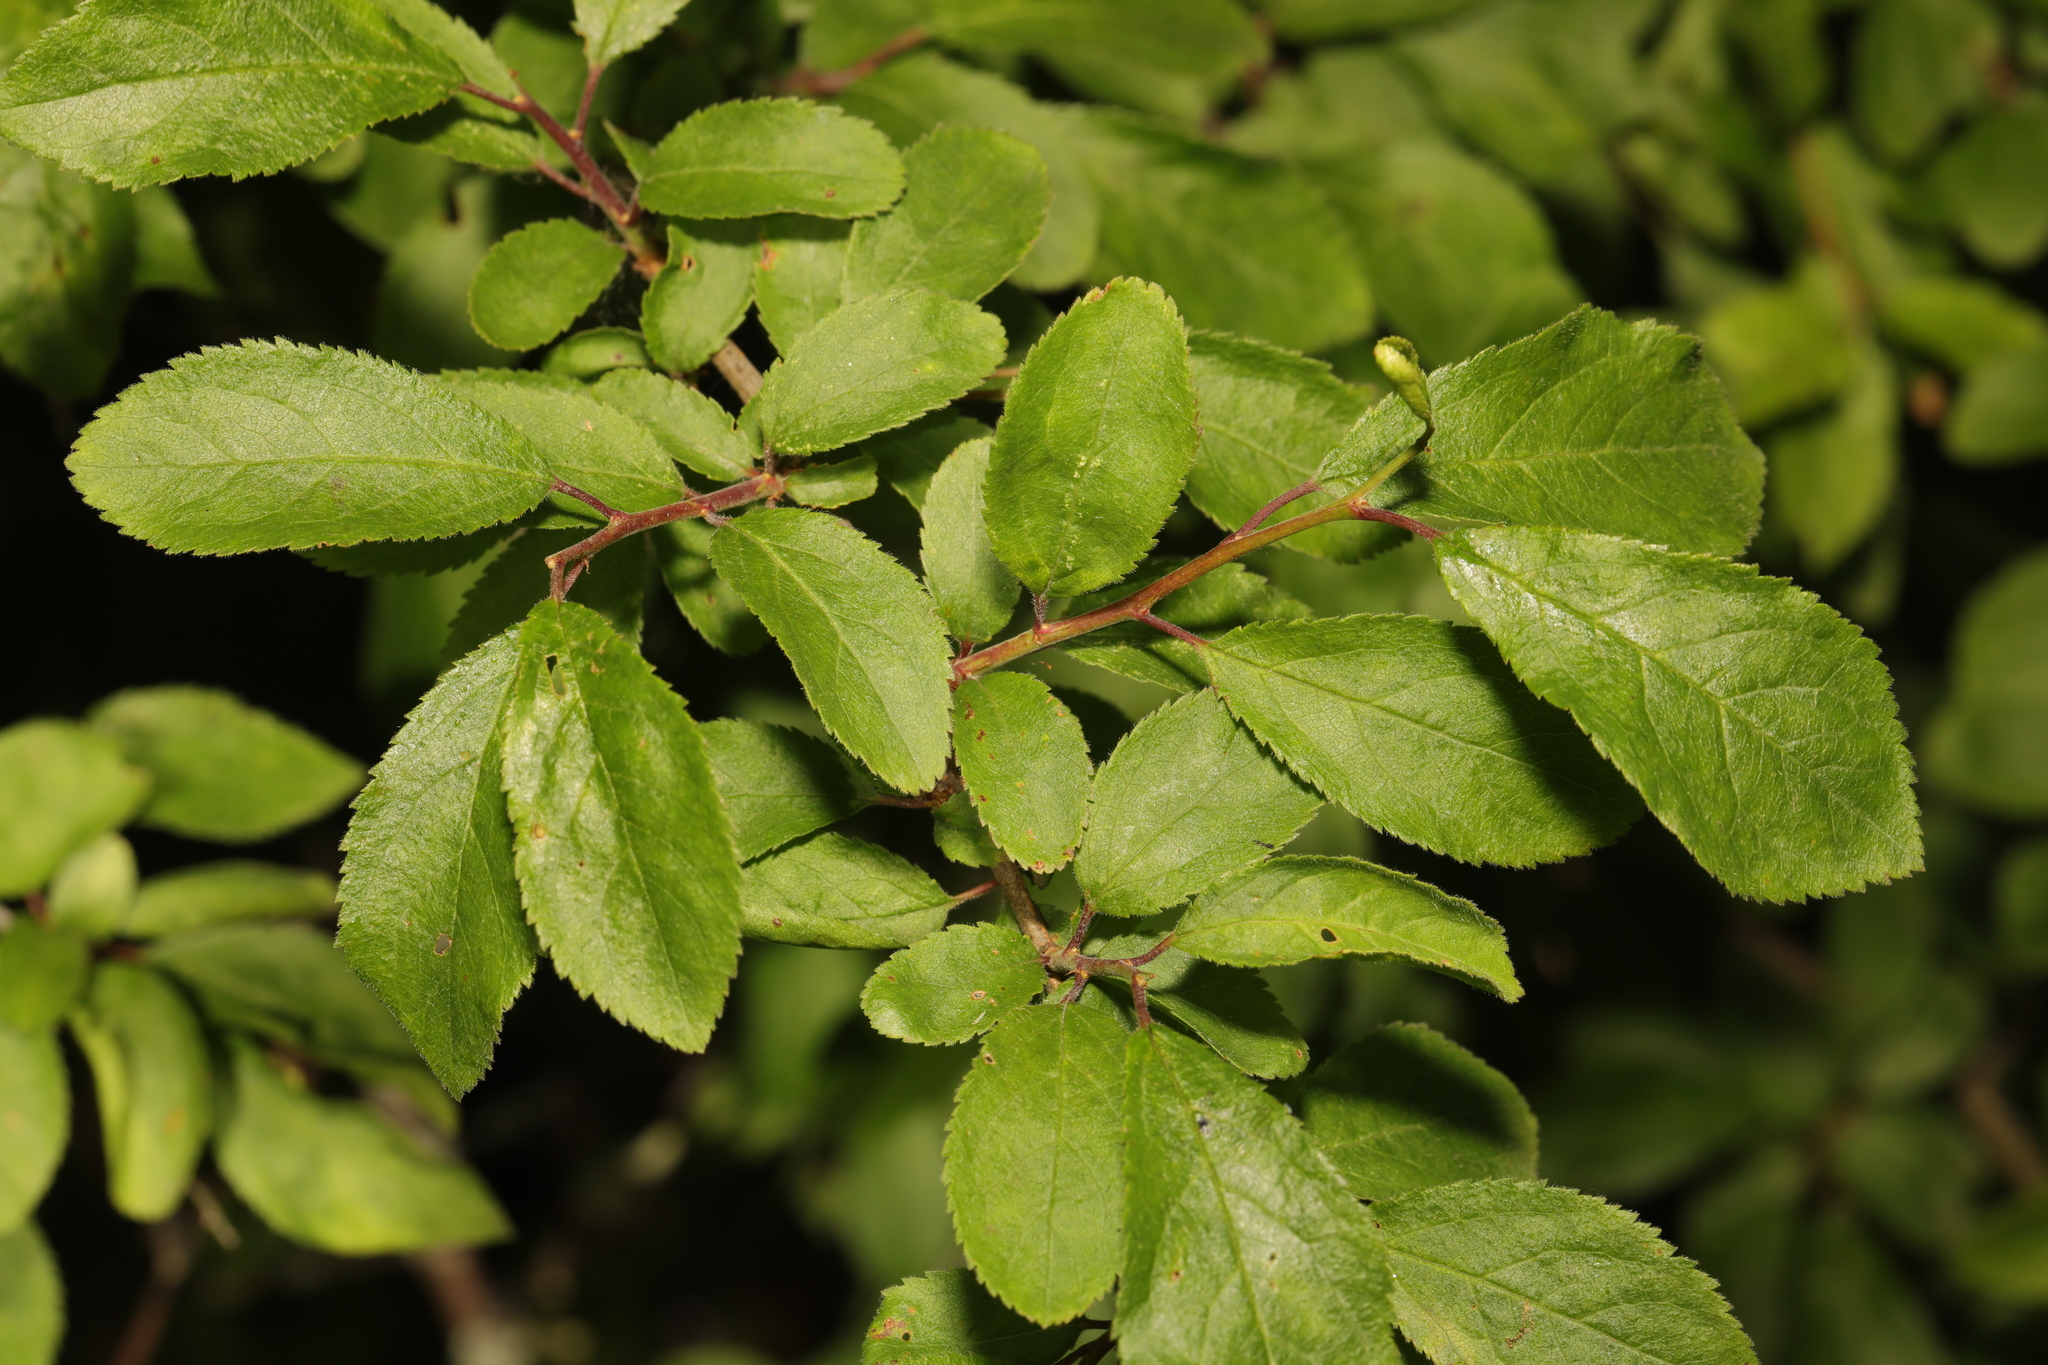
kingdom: Plantae
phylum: Tracheophyta
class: Magnoliopsida
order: Rosales
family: Rosaceae
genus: Prunus
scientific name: Prunus spinosa
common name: Blackthorn
